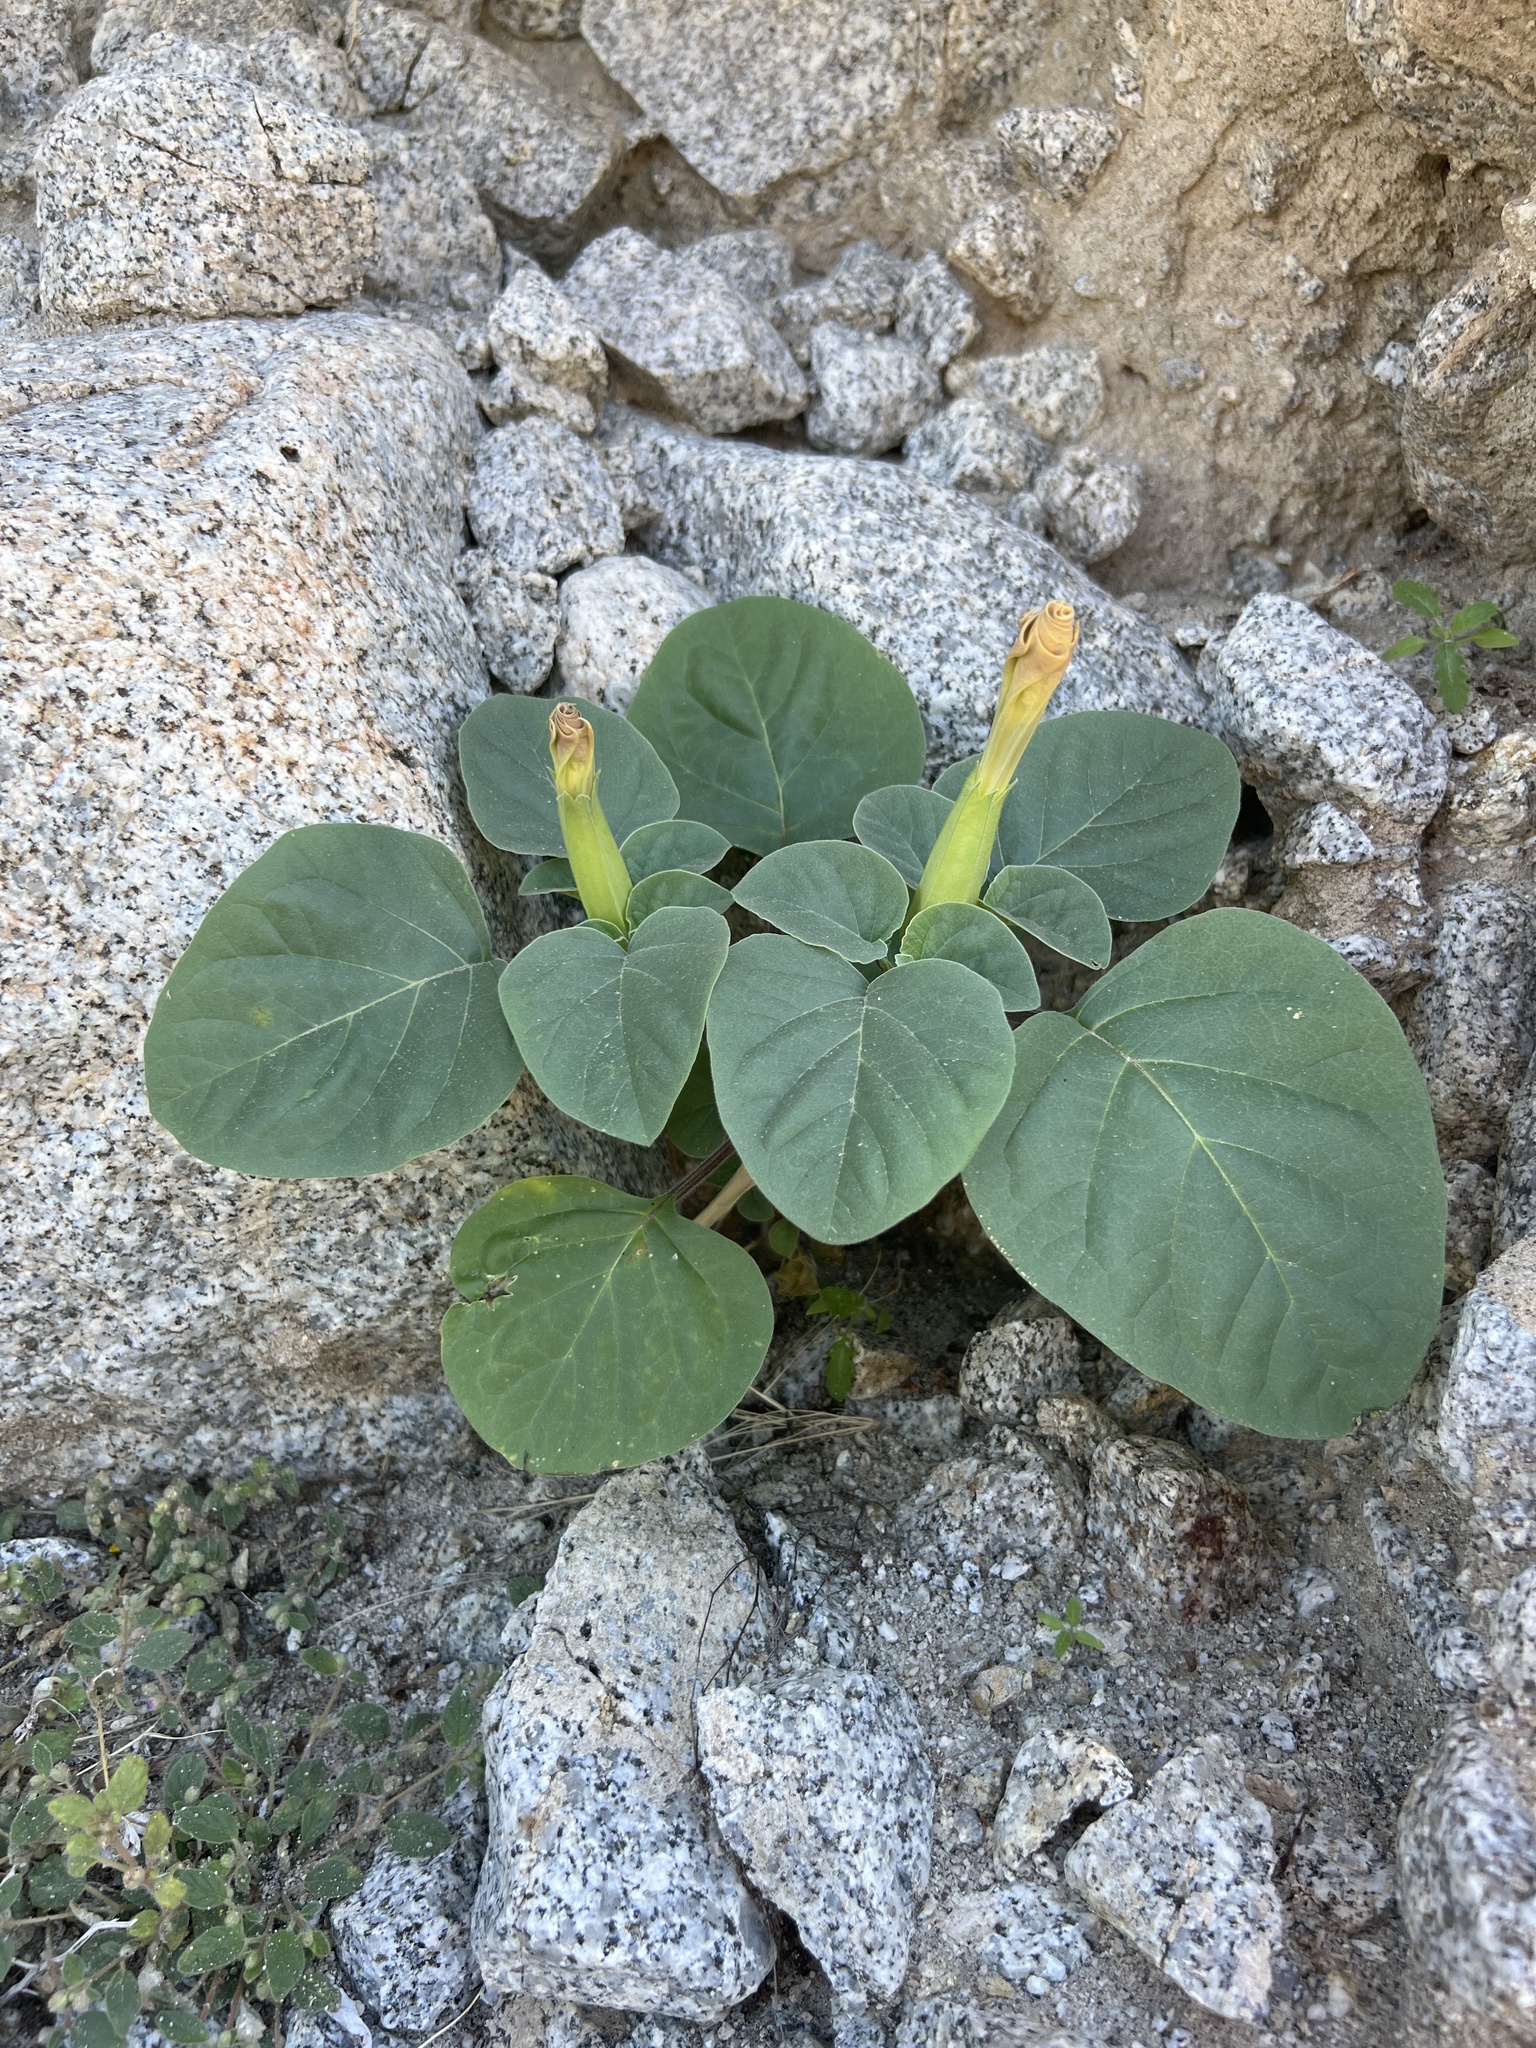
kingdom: Plantae
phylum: Tracheophyta
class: Magnoliopsida
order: Solanales
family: Solanaceae
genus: Datura
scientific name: Datura discolor
